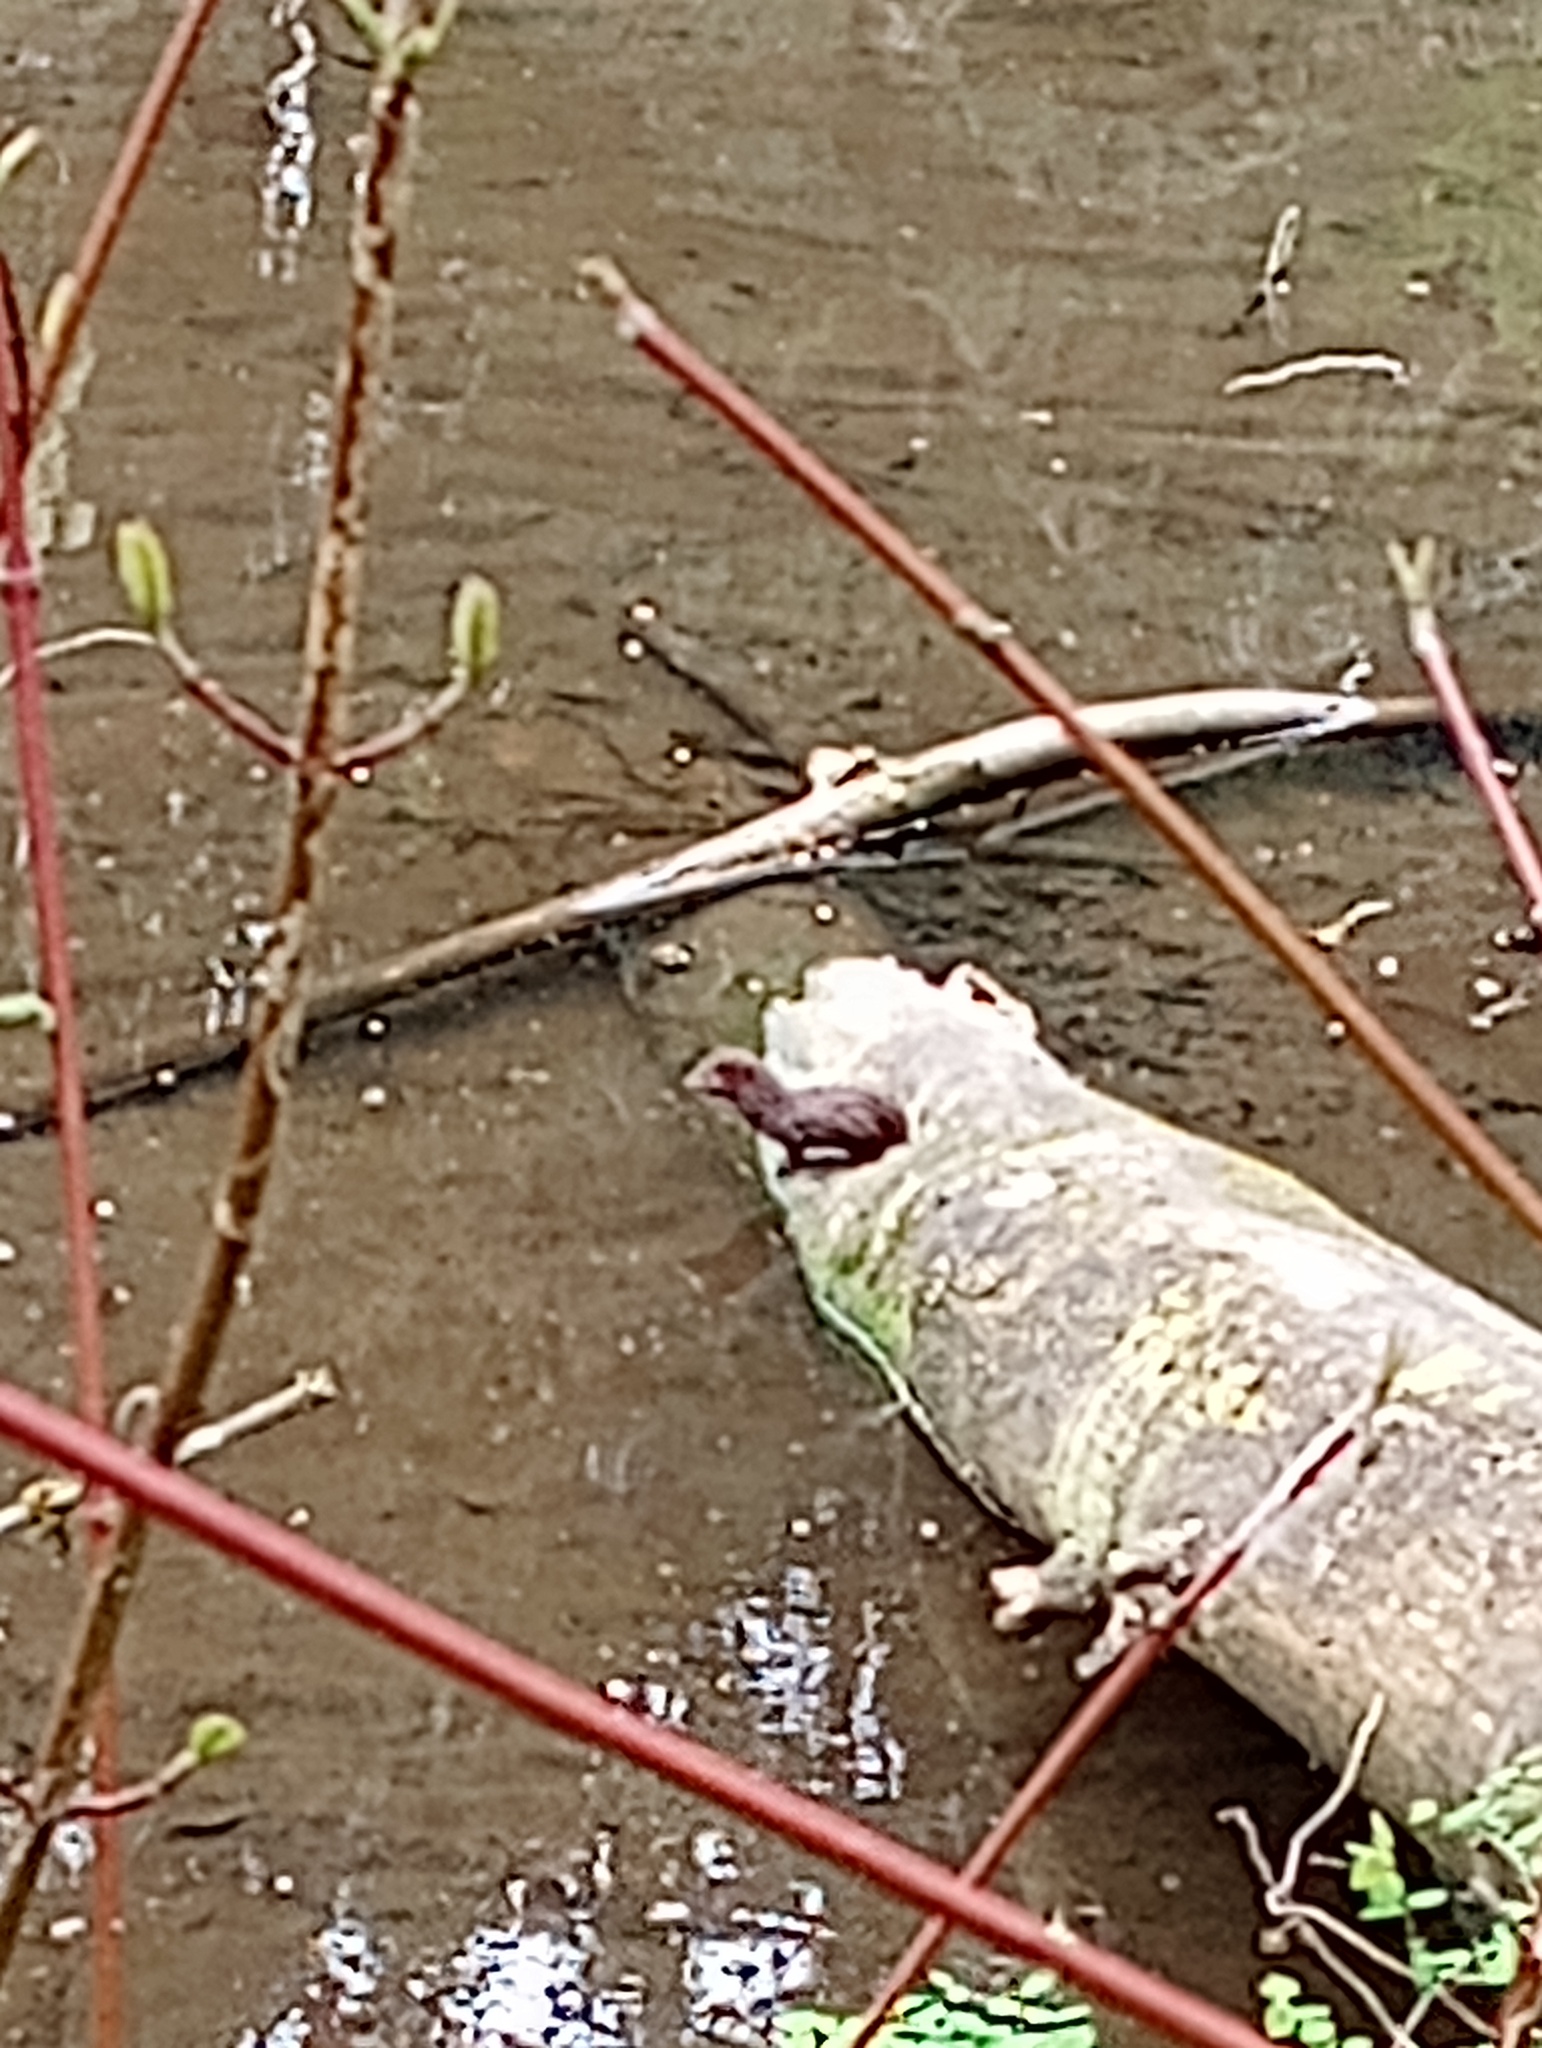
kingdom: Animalia
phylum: Chordata
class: Mammalia
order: Carnivora
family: Mustelidae
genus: Mustela
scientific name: Mustela
